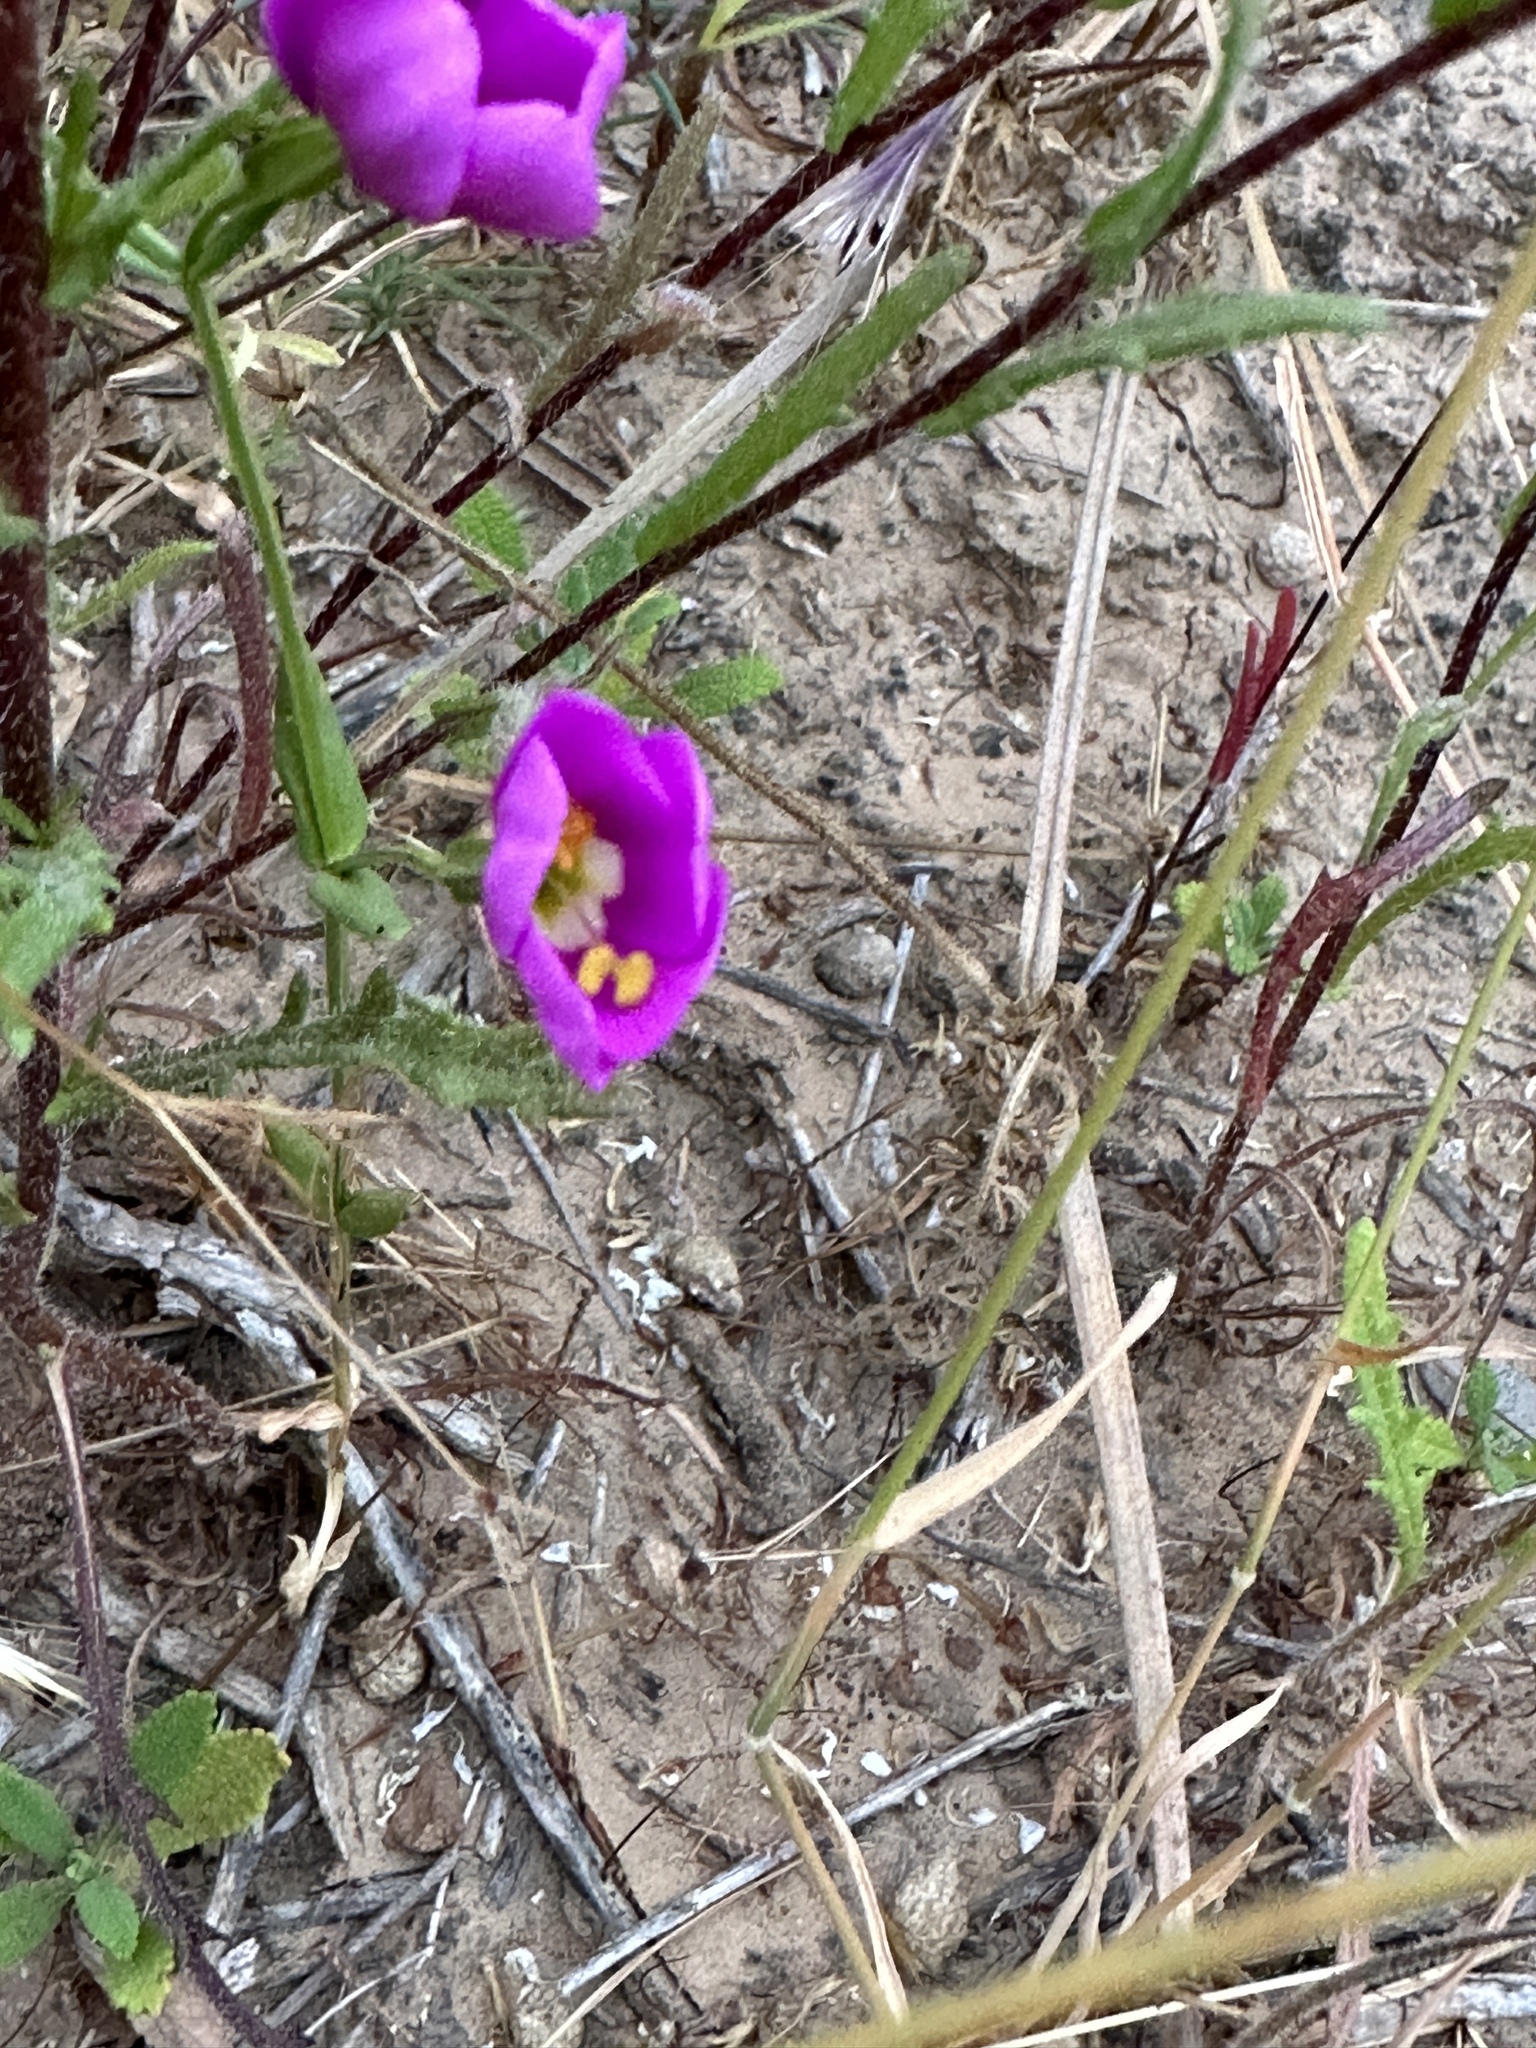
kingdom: Plantae
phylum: Tracheophyta
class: Magnoliopsida
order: Gentianales
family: Gentianaceae
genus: Zeltnera
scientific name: Zeltnera venusta
